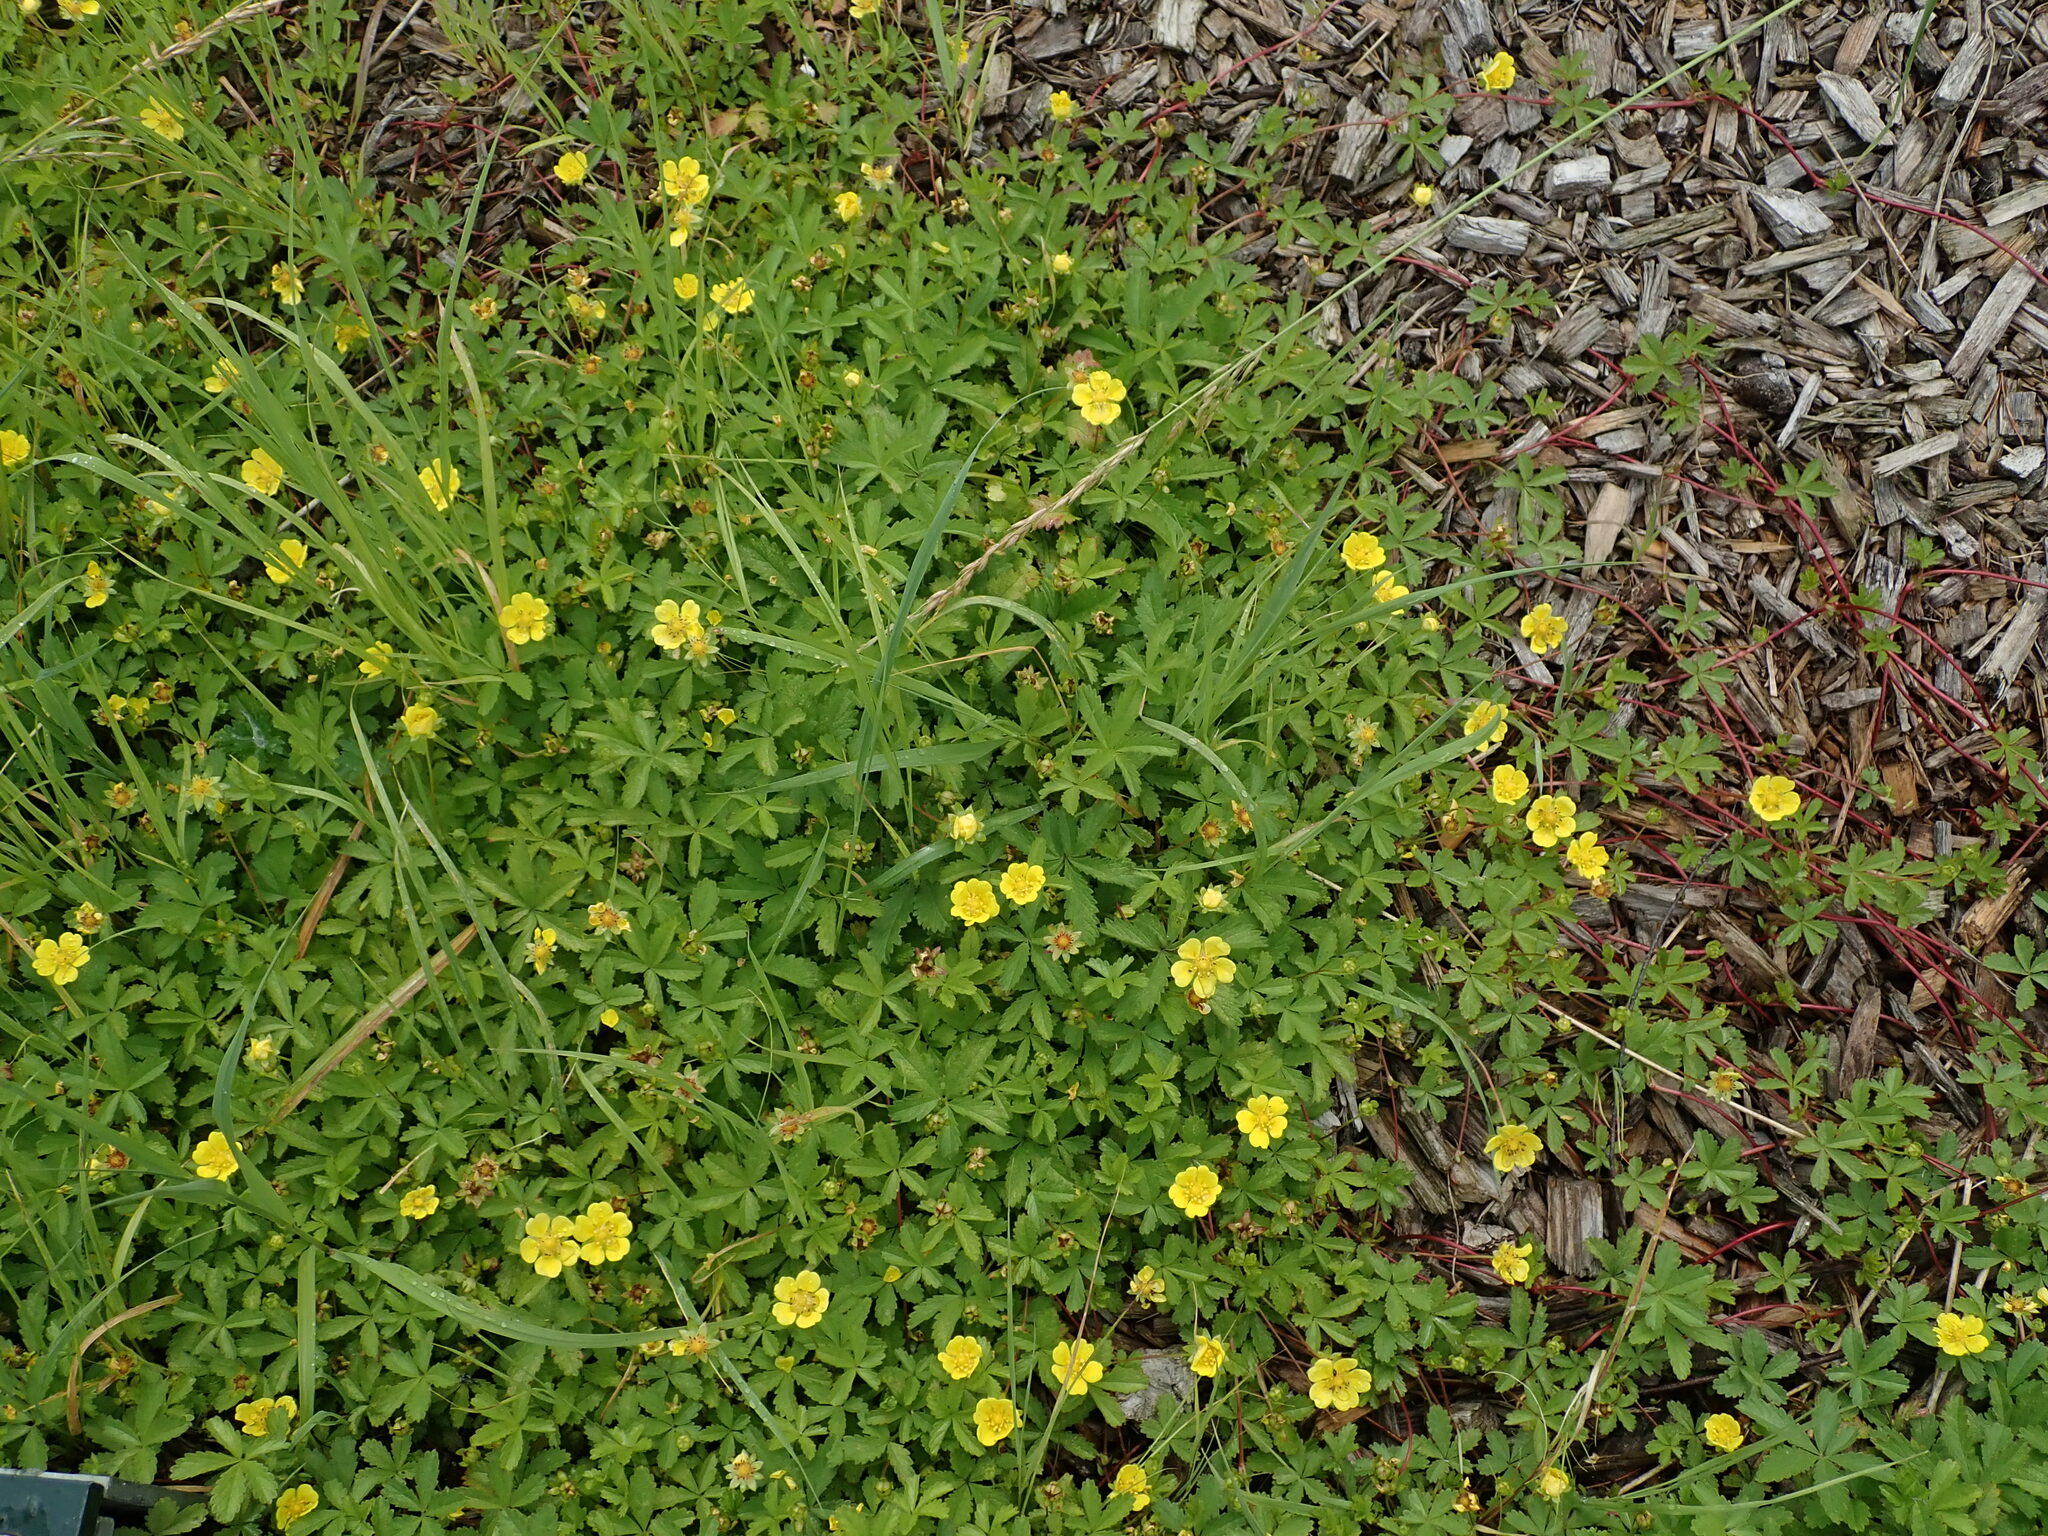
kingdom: Plantae
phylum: Tracheophyta
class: Magnoliopsida
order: Rosales
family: Rosaceae
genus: Potentilla
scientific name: Potentilla reptans
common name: Creeping cinquefoil
